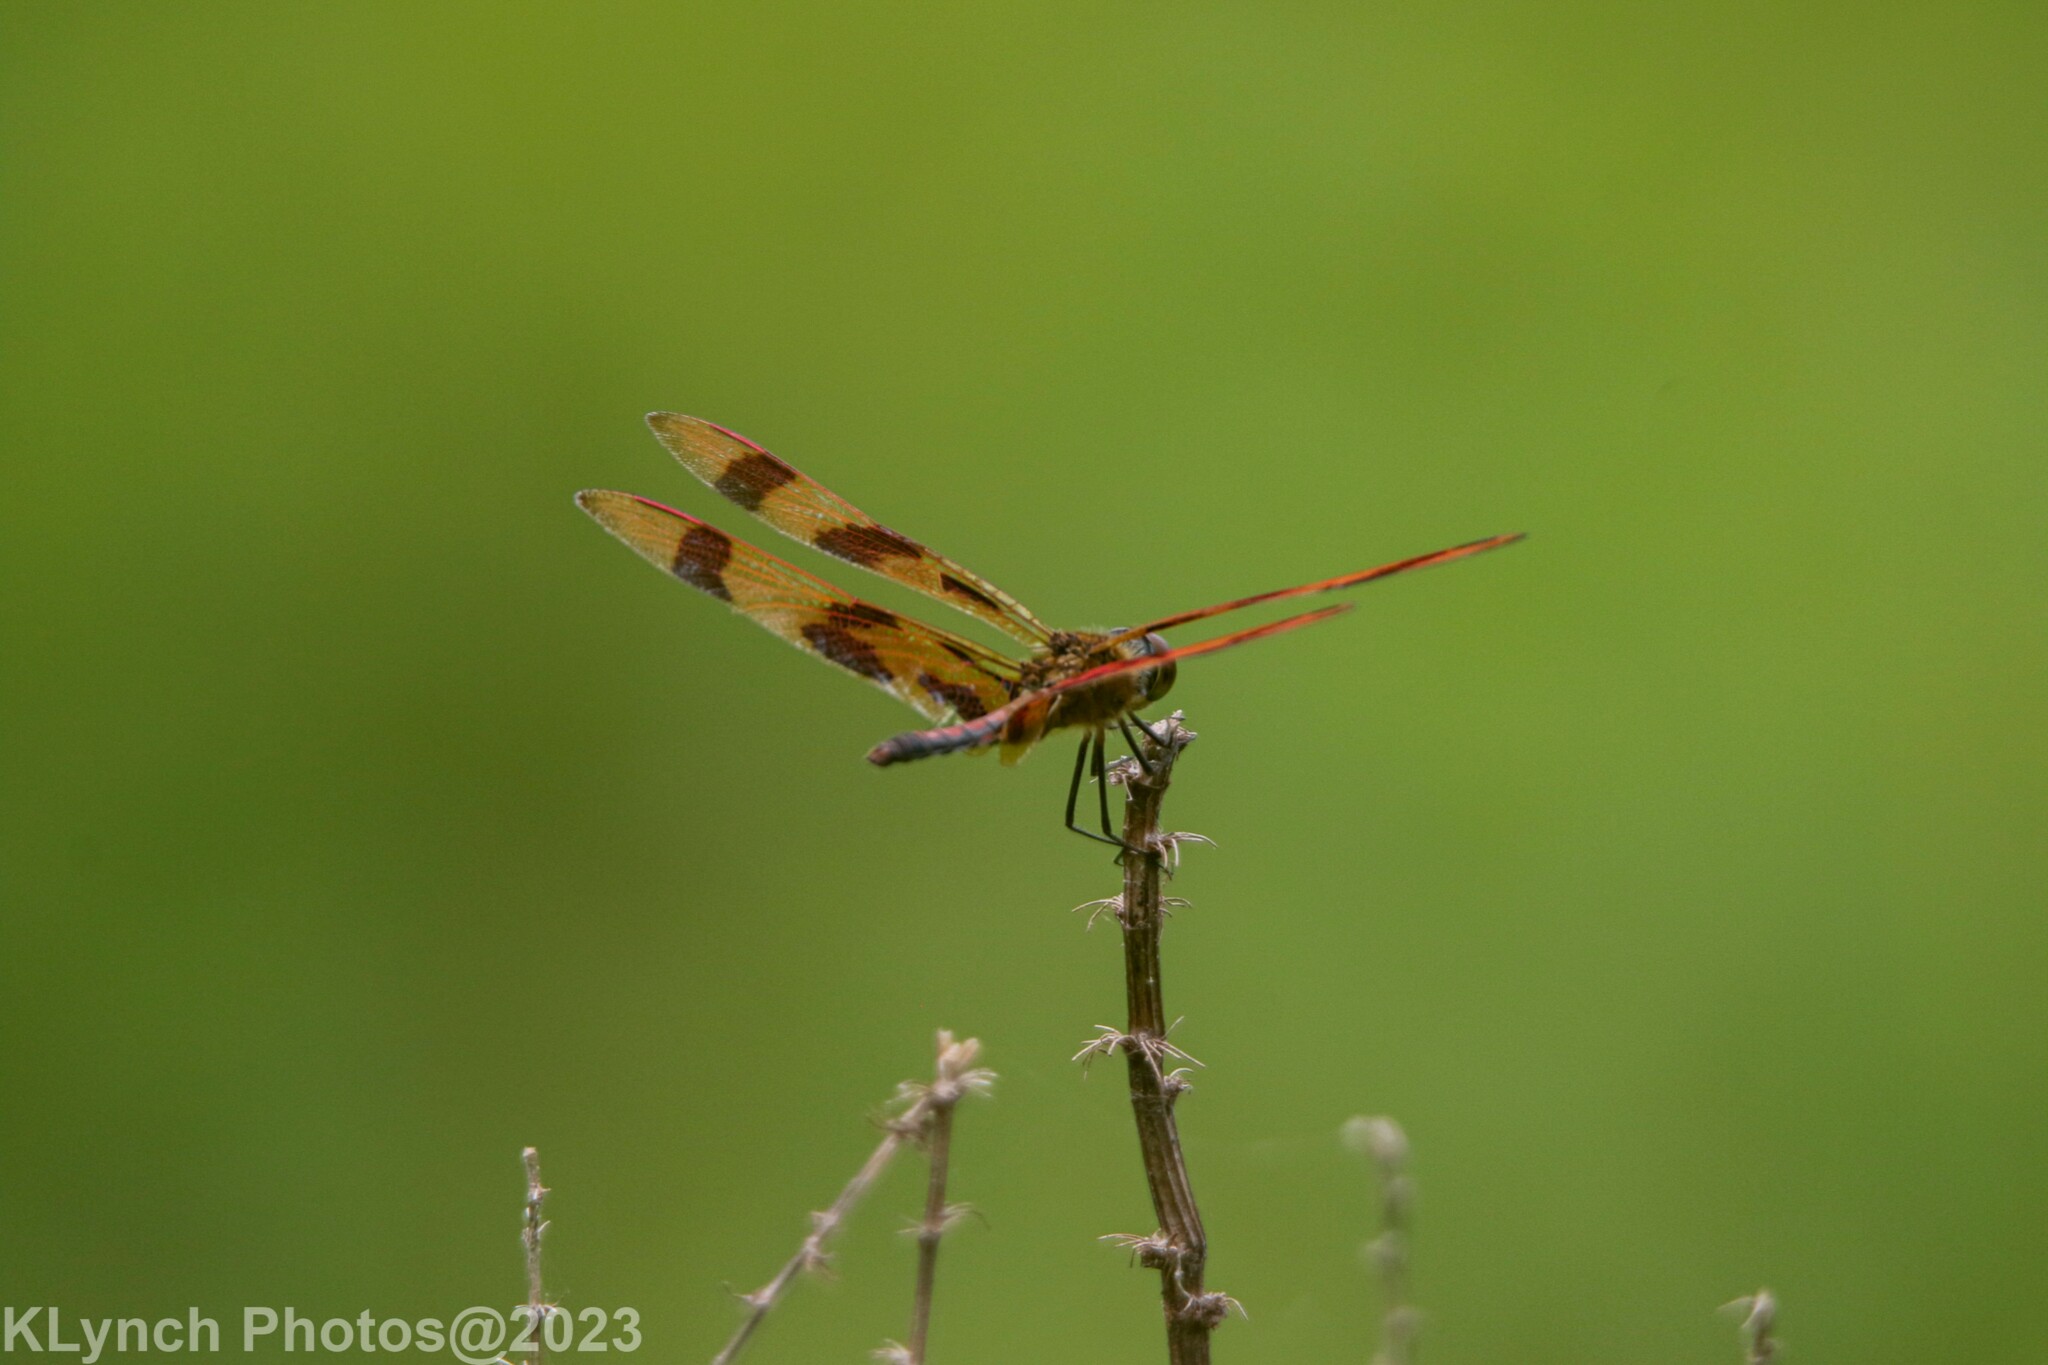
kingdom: Animalia
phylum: Arthropoda
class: Insecta
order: Odonata
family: Libellulidae
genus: Celithemis
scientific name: Celithemis eponina
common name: Halloween pennant
